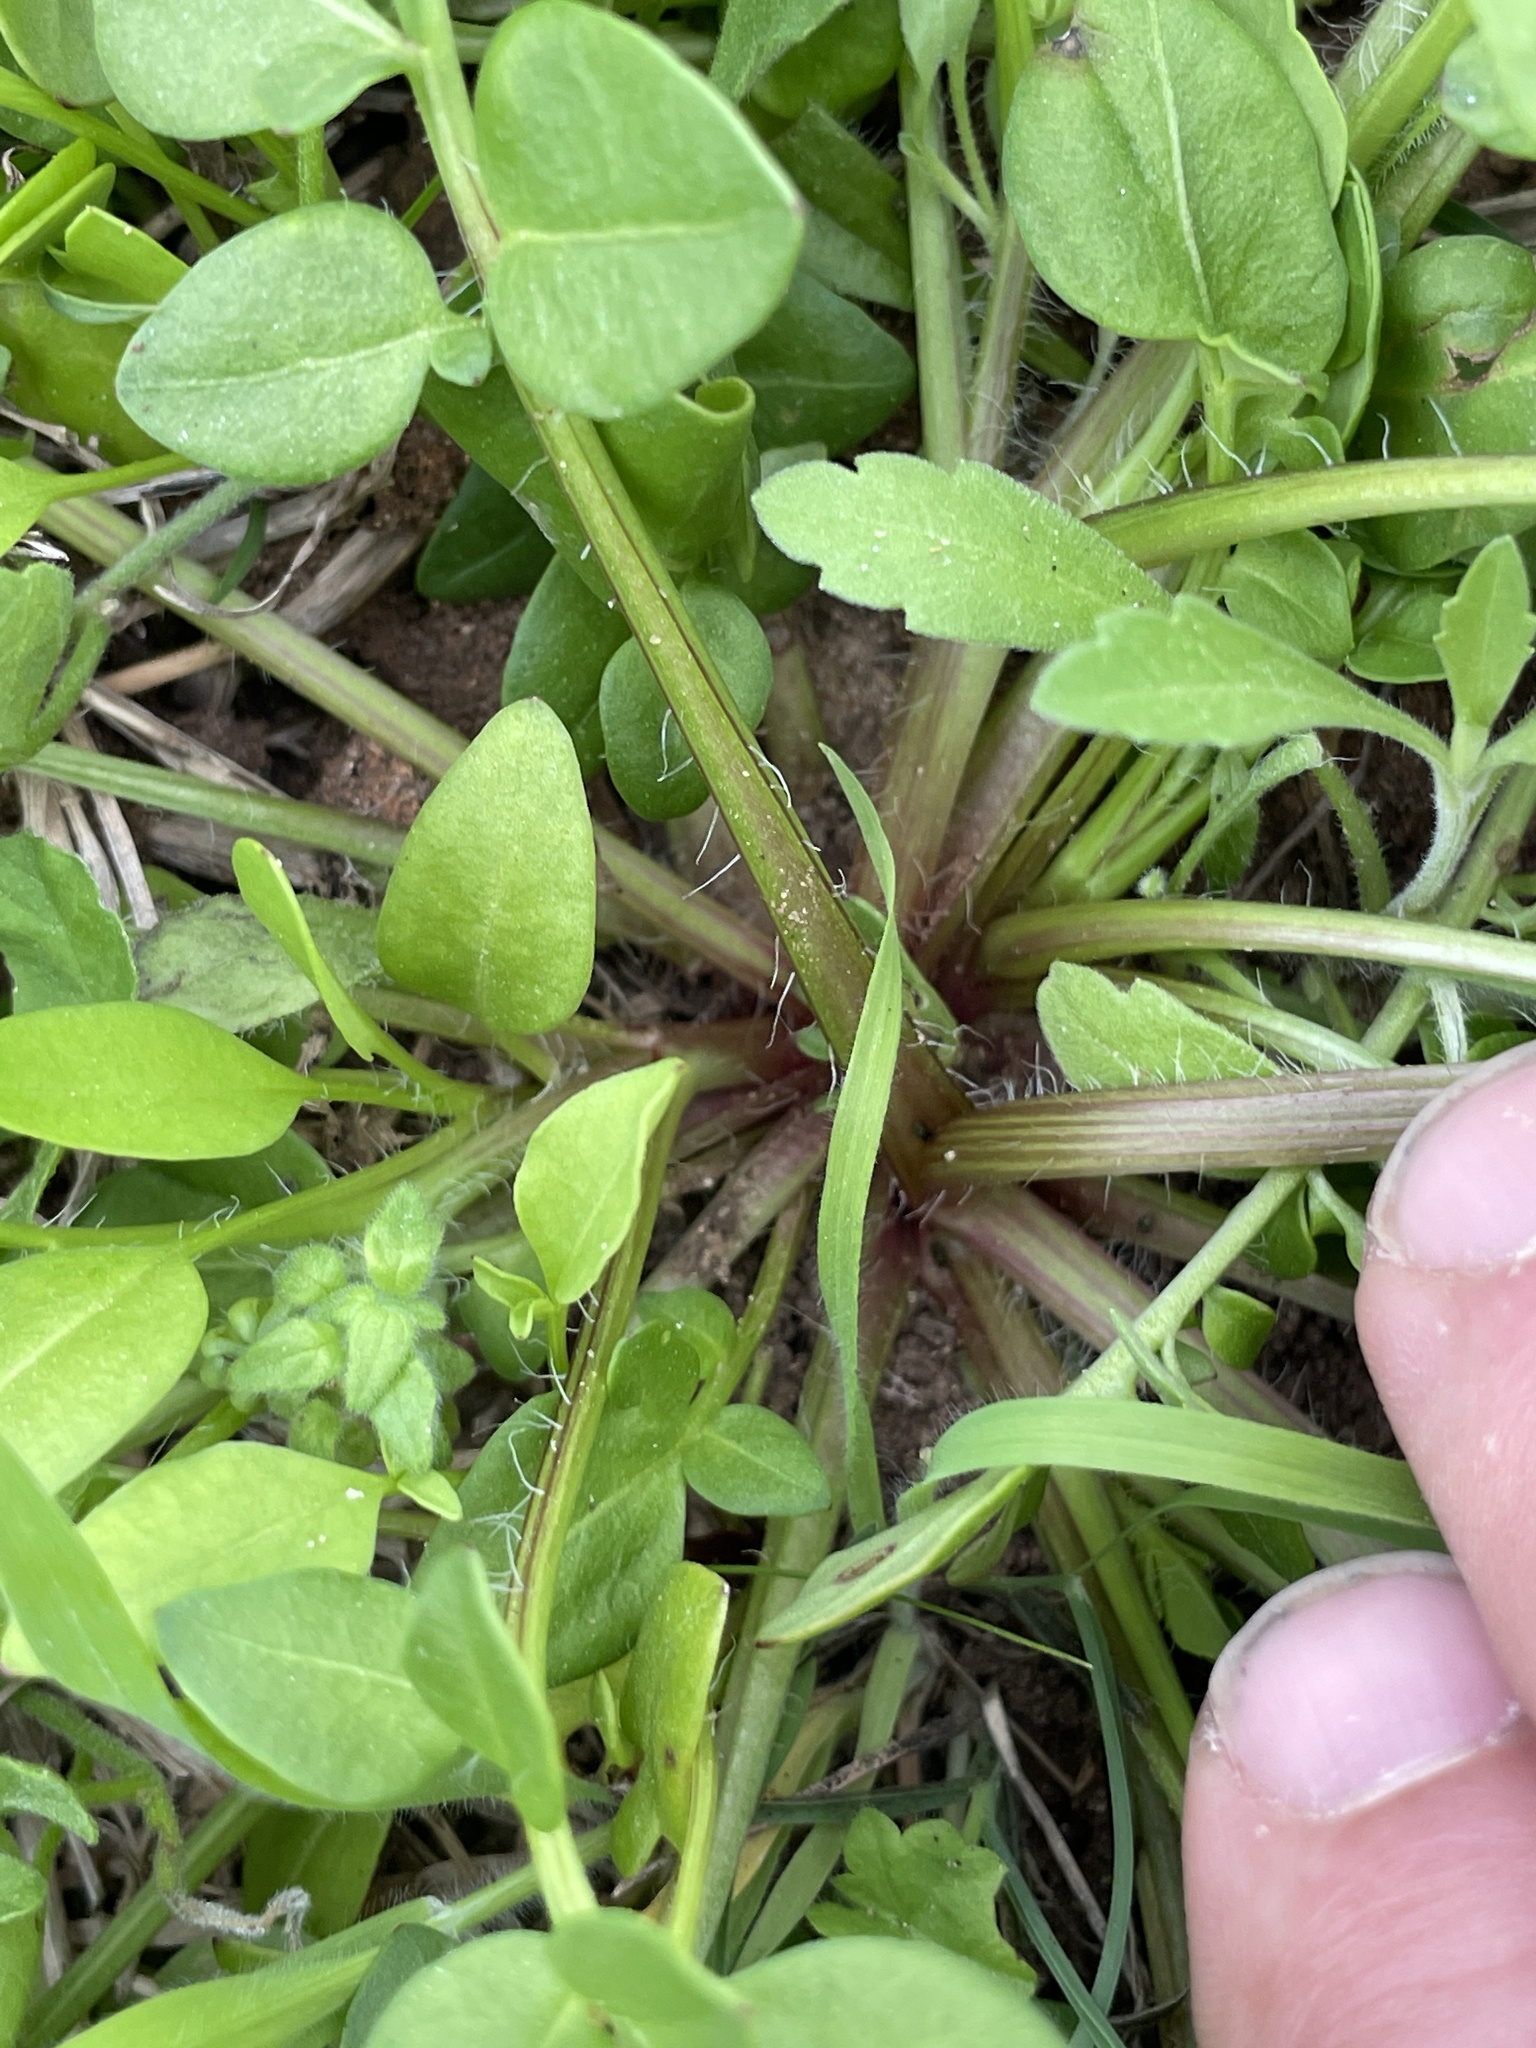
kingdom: Plantae
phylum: Tracheophyta
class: Magnoliopsida
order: Asterales
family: Asteraceae
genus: Coreopsis
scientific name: Coreopsis nuecensis
